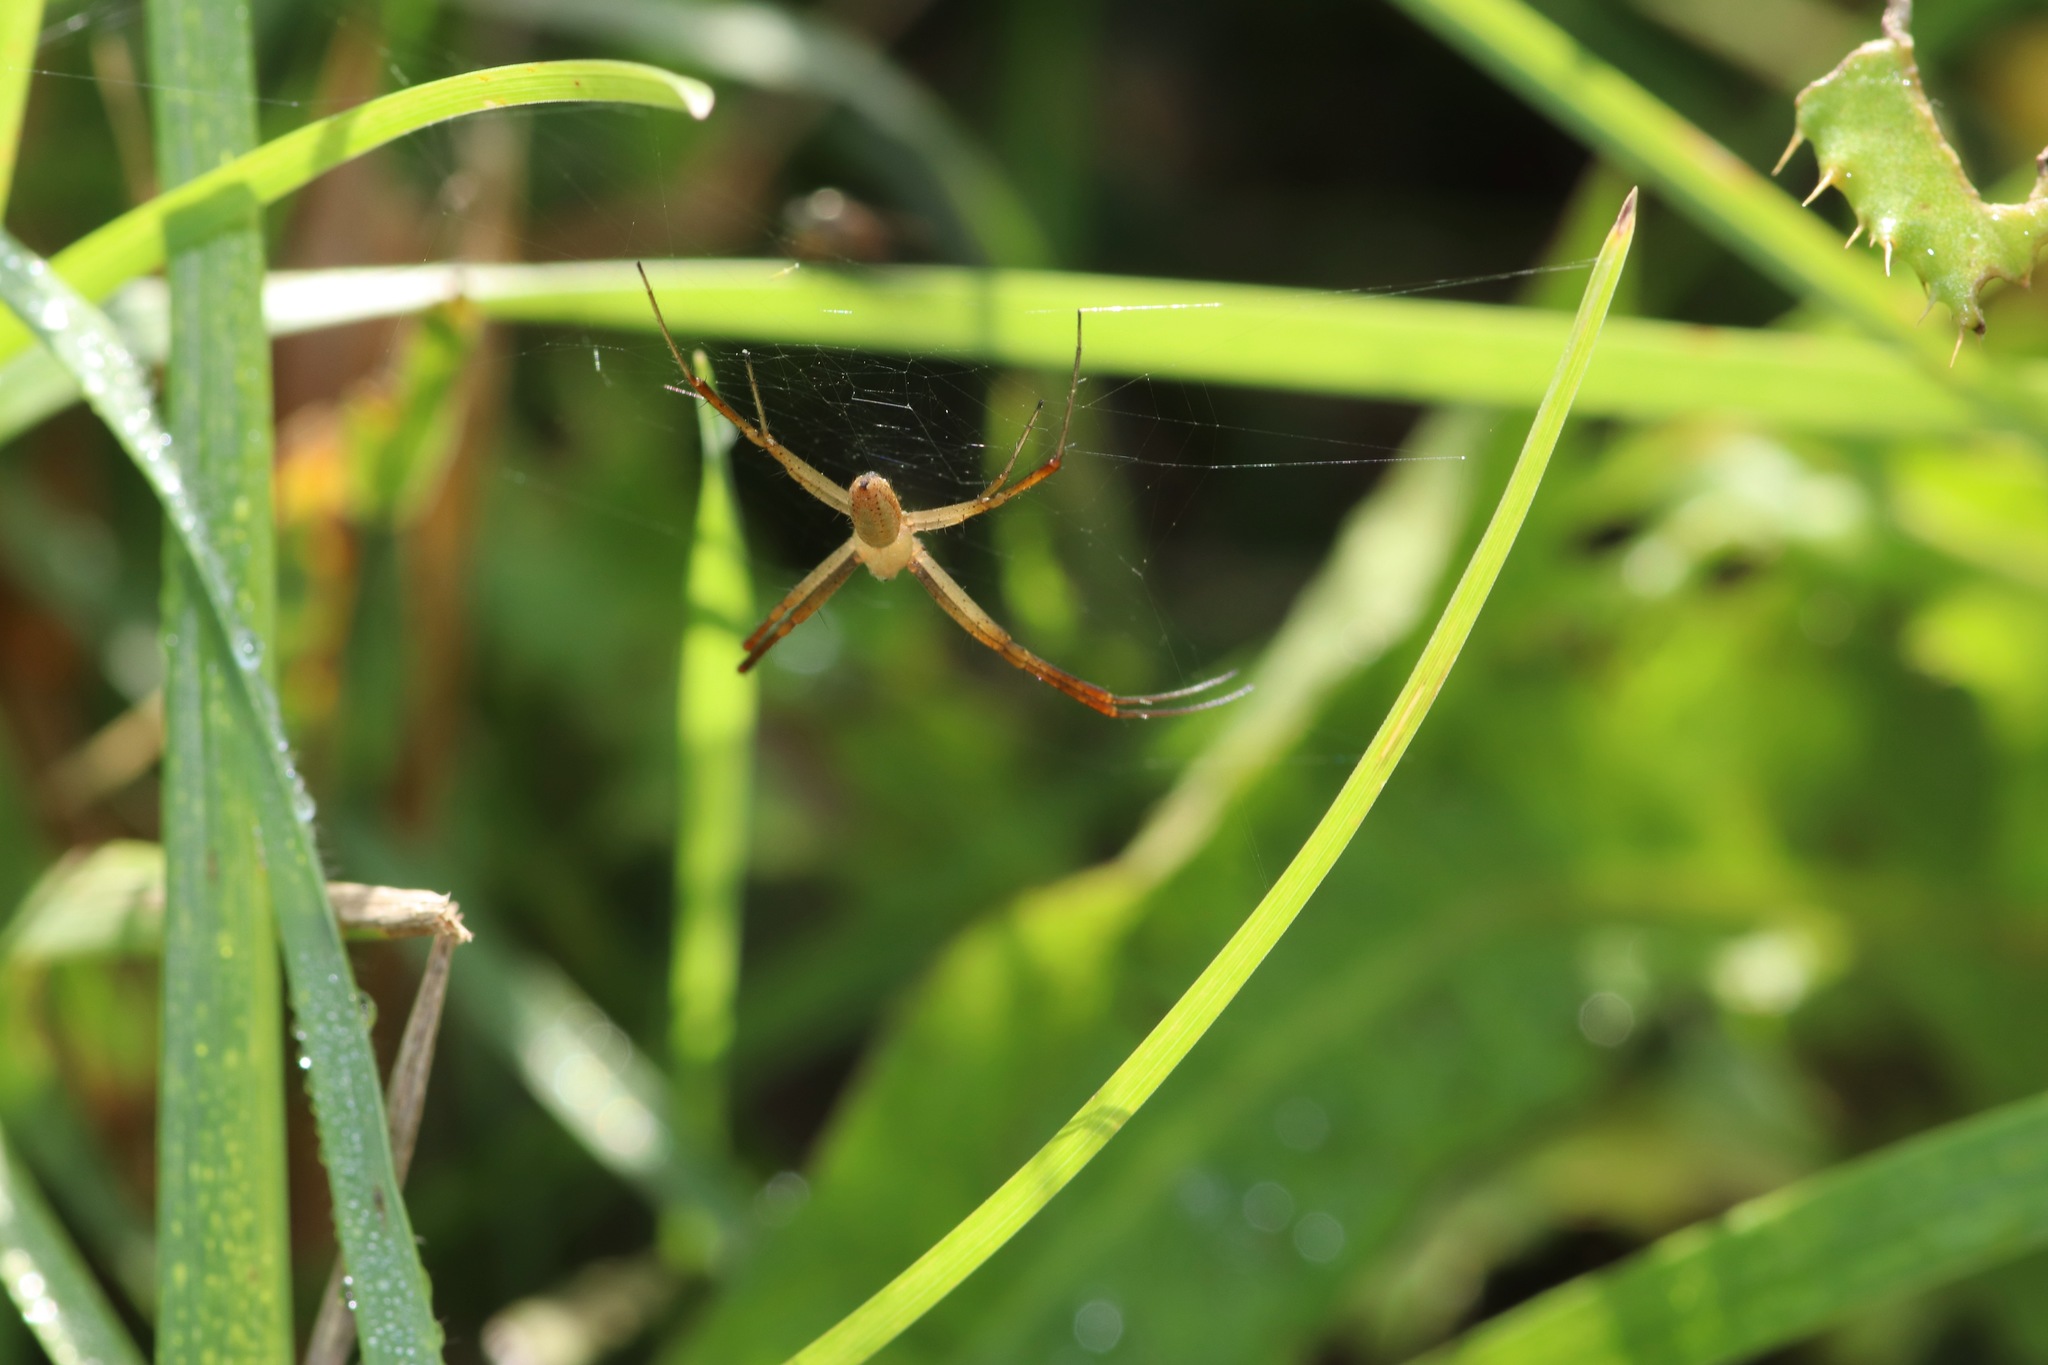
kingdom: Animalia
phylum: Arthropoda
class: Arachnida
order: Araneae
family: Araneidae
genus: Argiope
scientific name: Argiope trifasciata
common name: Banded garden spider
